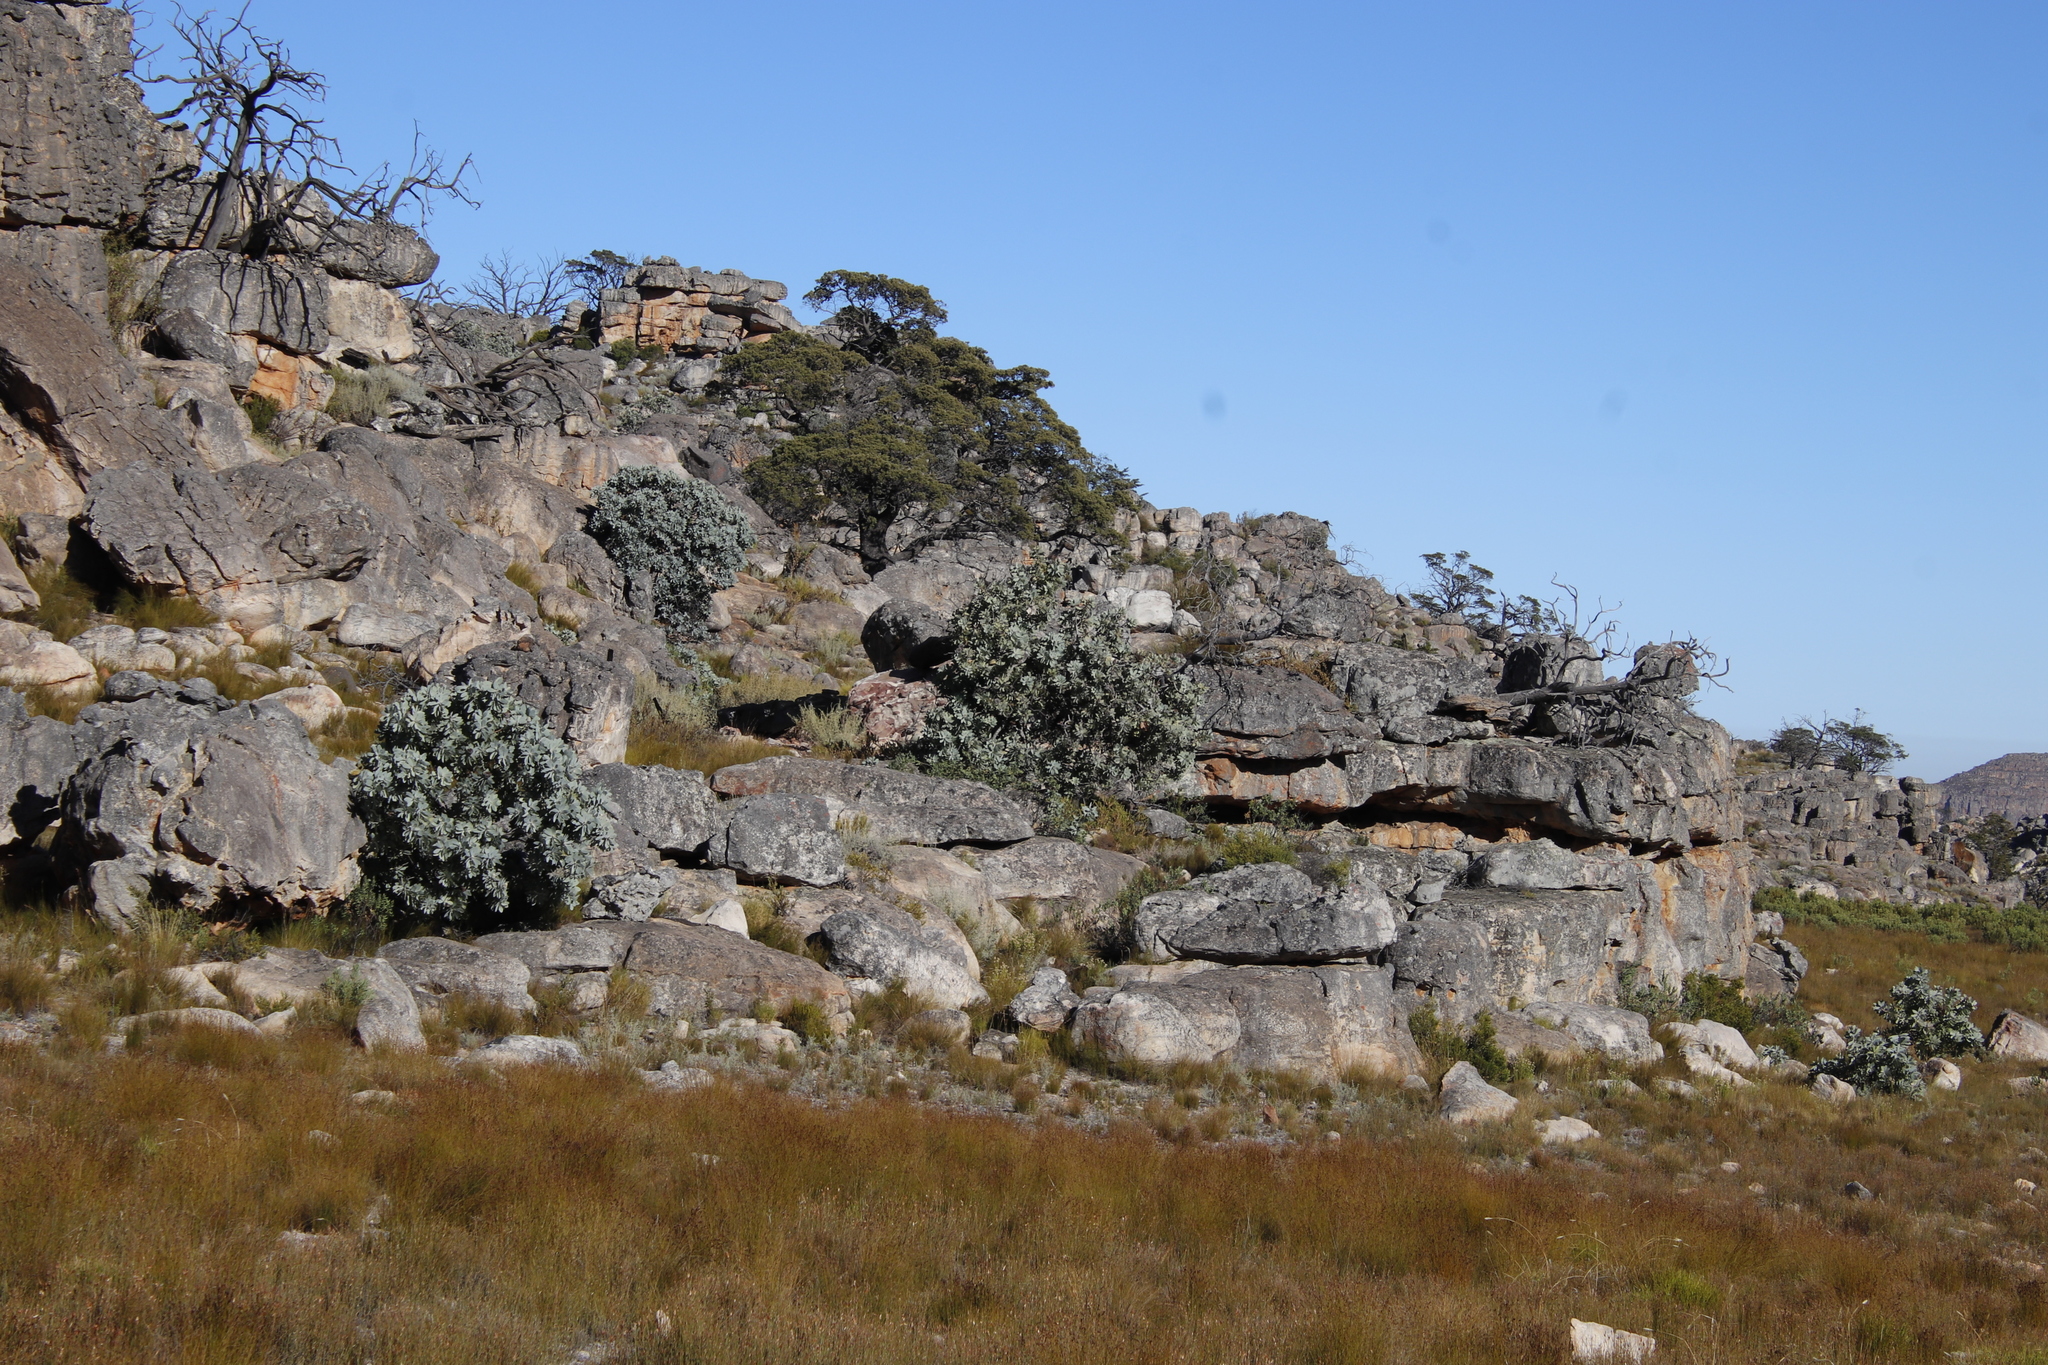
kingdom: Plantae
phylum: Tracheophyta
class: Magnoliopsida
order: Proteales
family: Proteaceae
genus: Protea
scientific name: Protea nitida
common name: Tree protea
